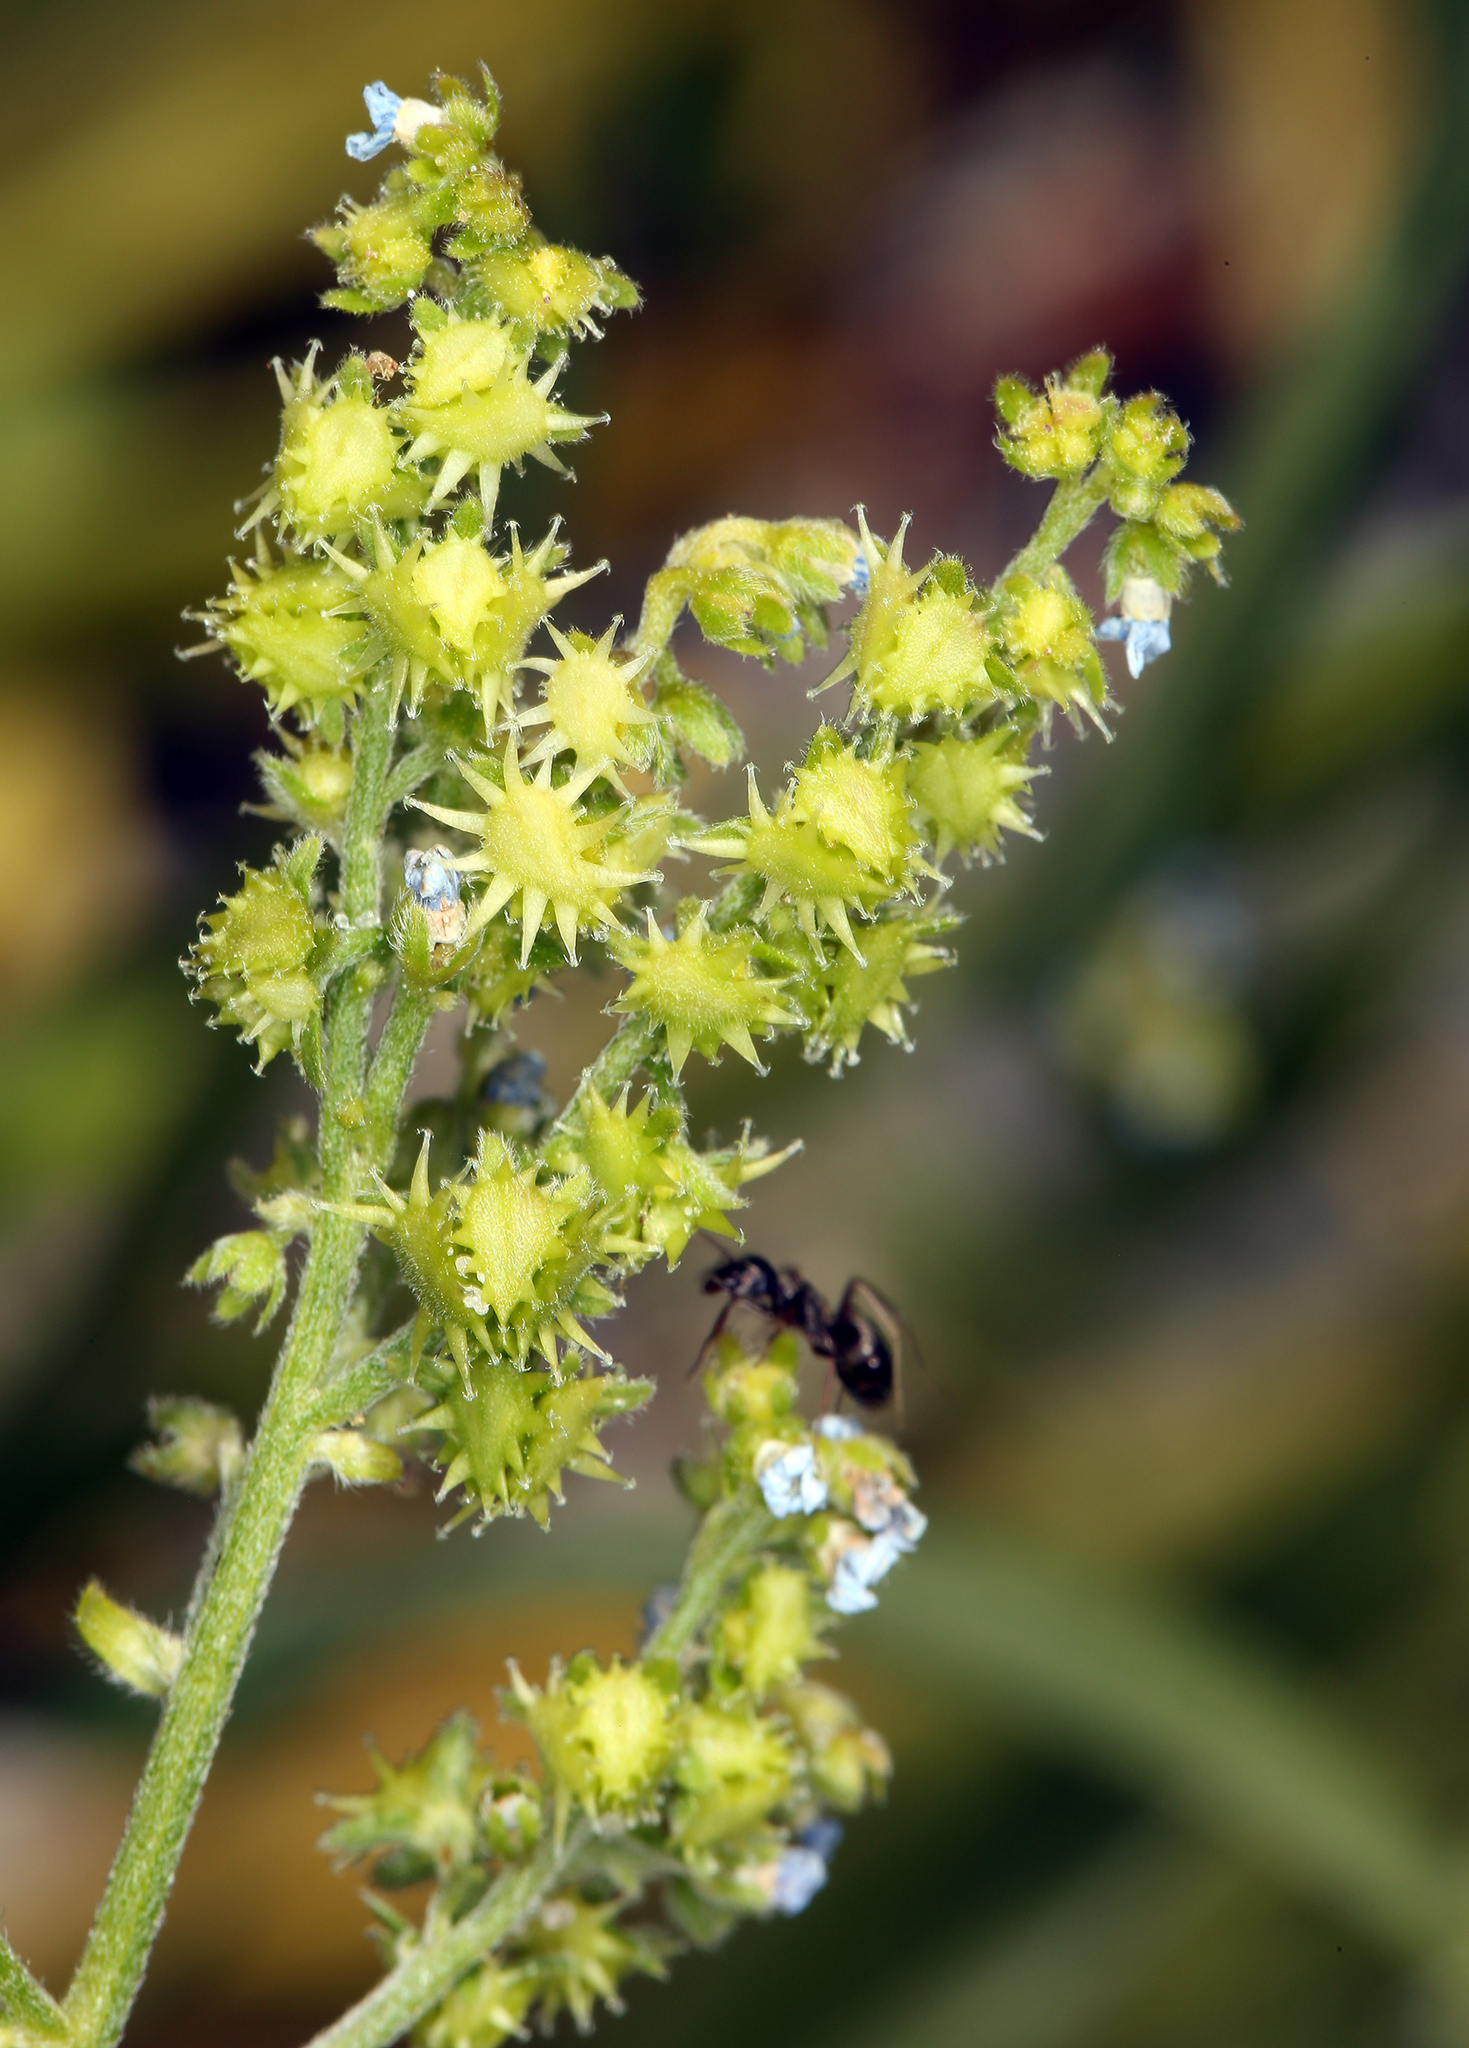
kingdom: Plantae
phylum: Tracheophyta
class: Magnoliopsida
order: Boraginales
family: Boraginaceae
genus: Hackelia
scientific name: Hackelia brevicula
